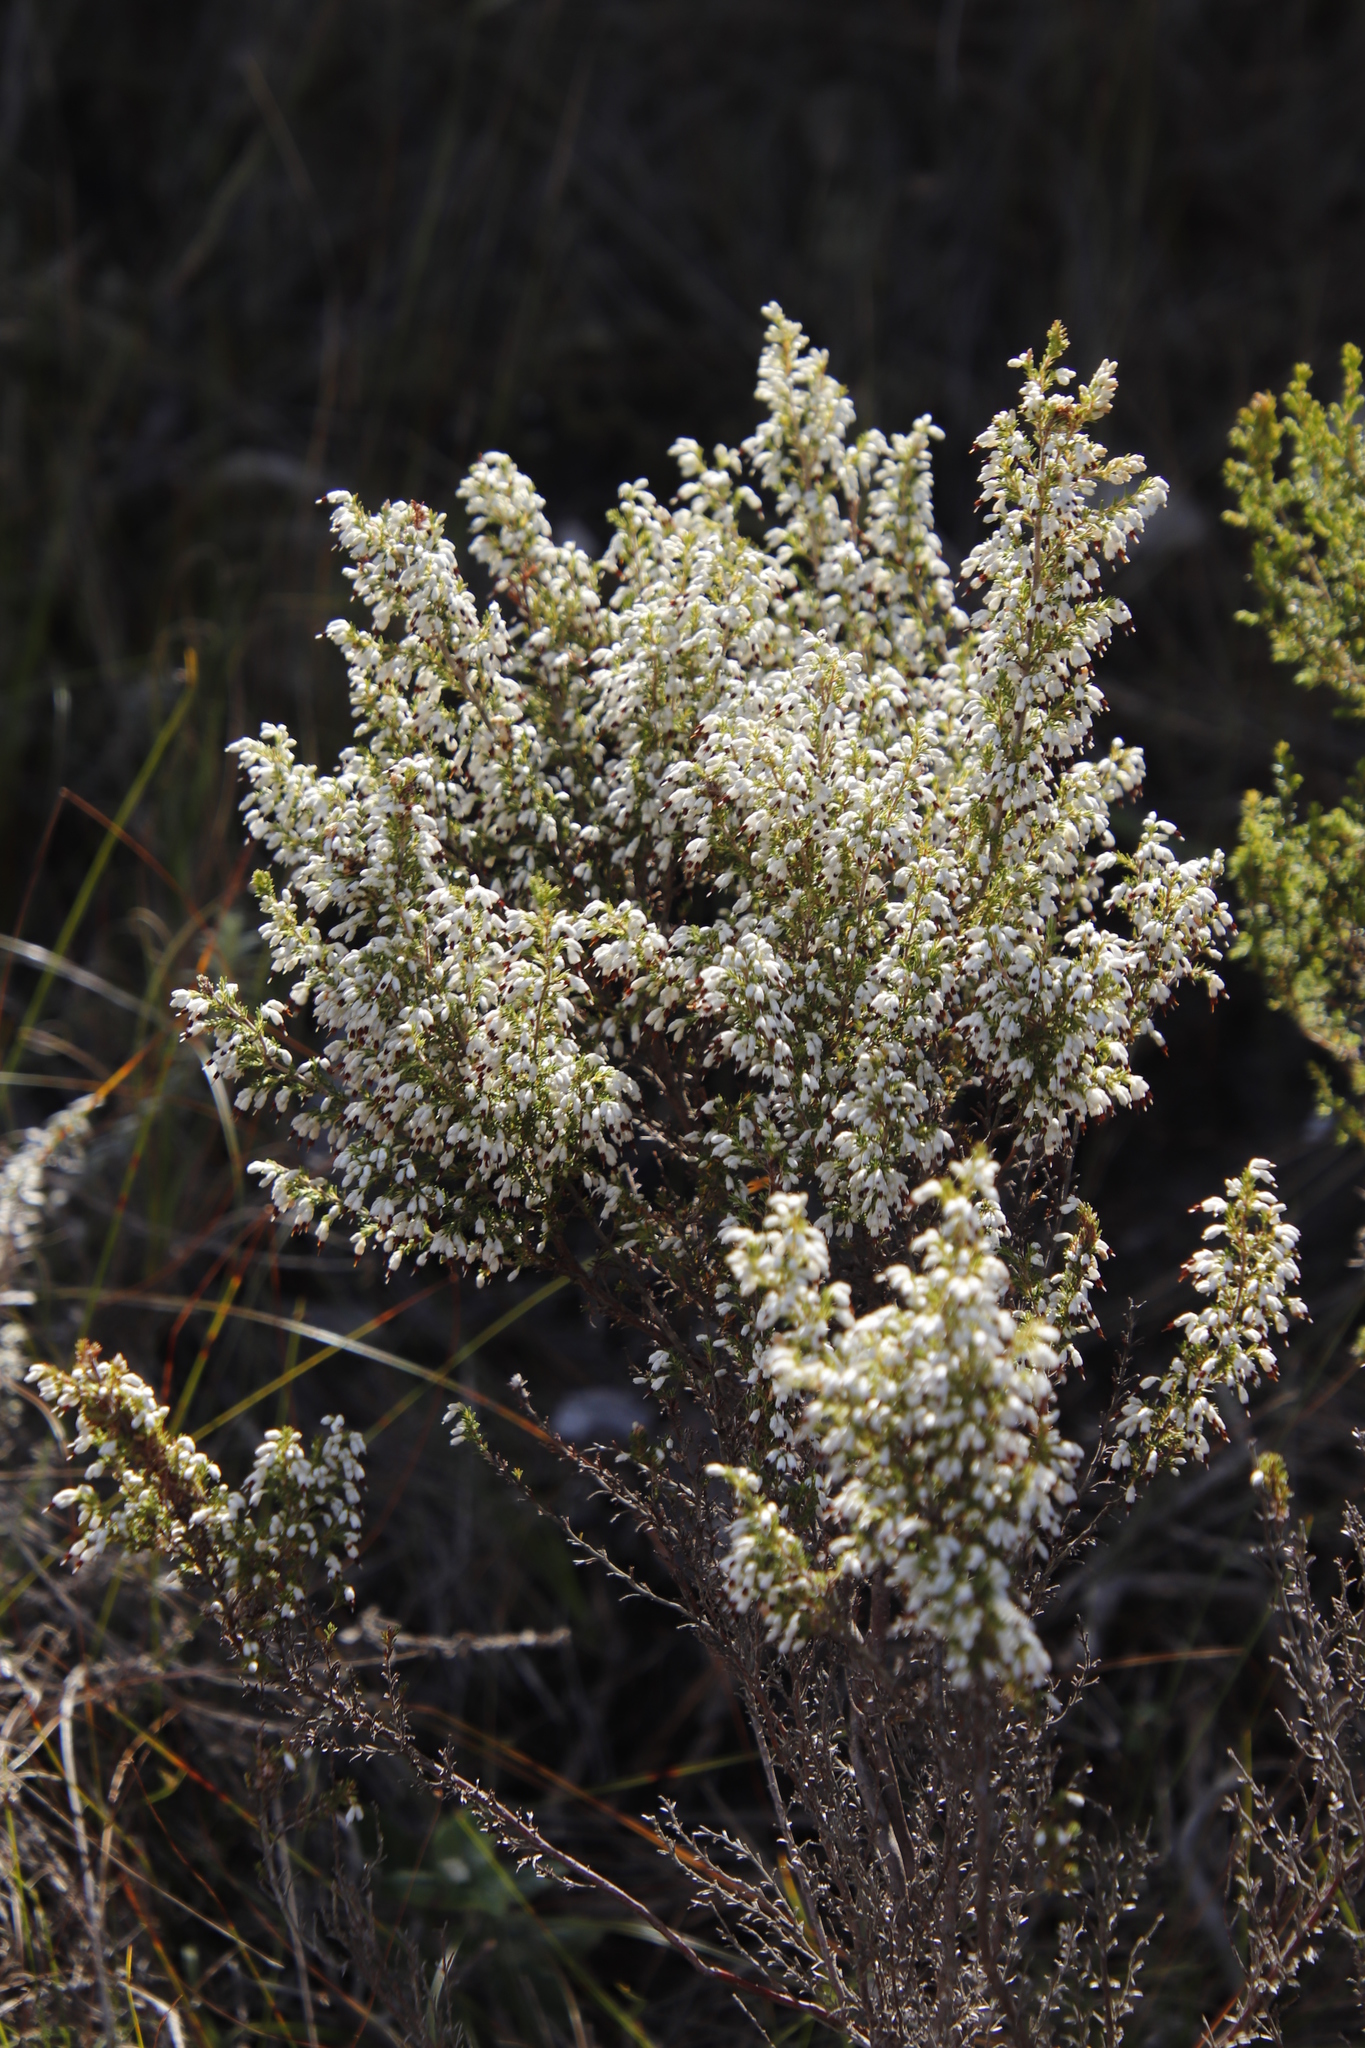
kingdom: Plantae
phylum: Tracheophyta
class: Magnoliopsida
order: Ericales
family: Ericaceae
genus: Erica
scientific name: Erica imbricata
